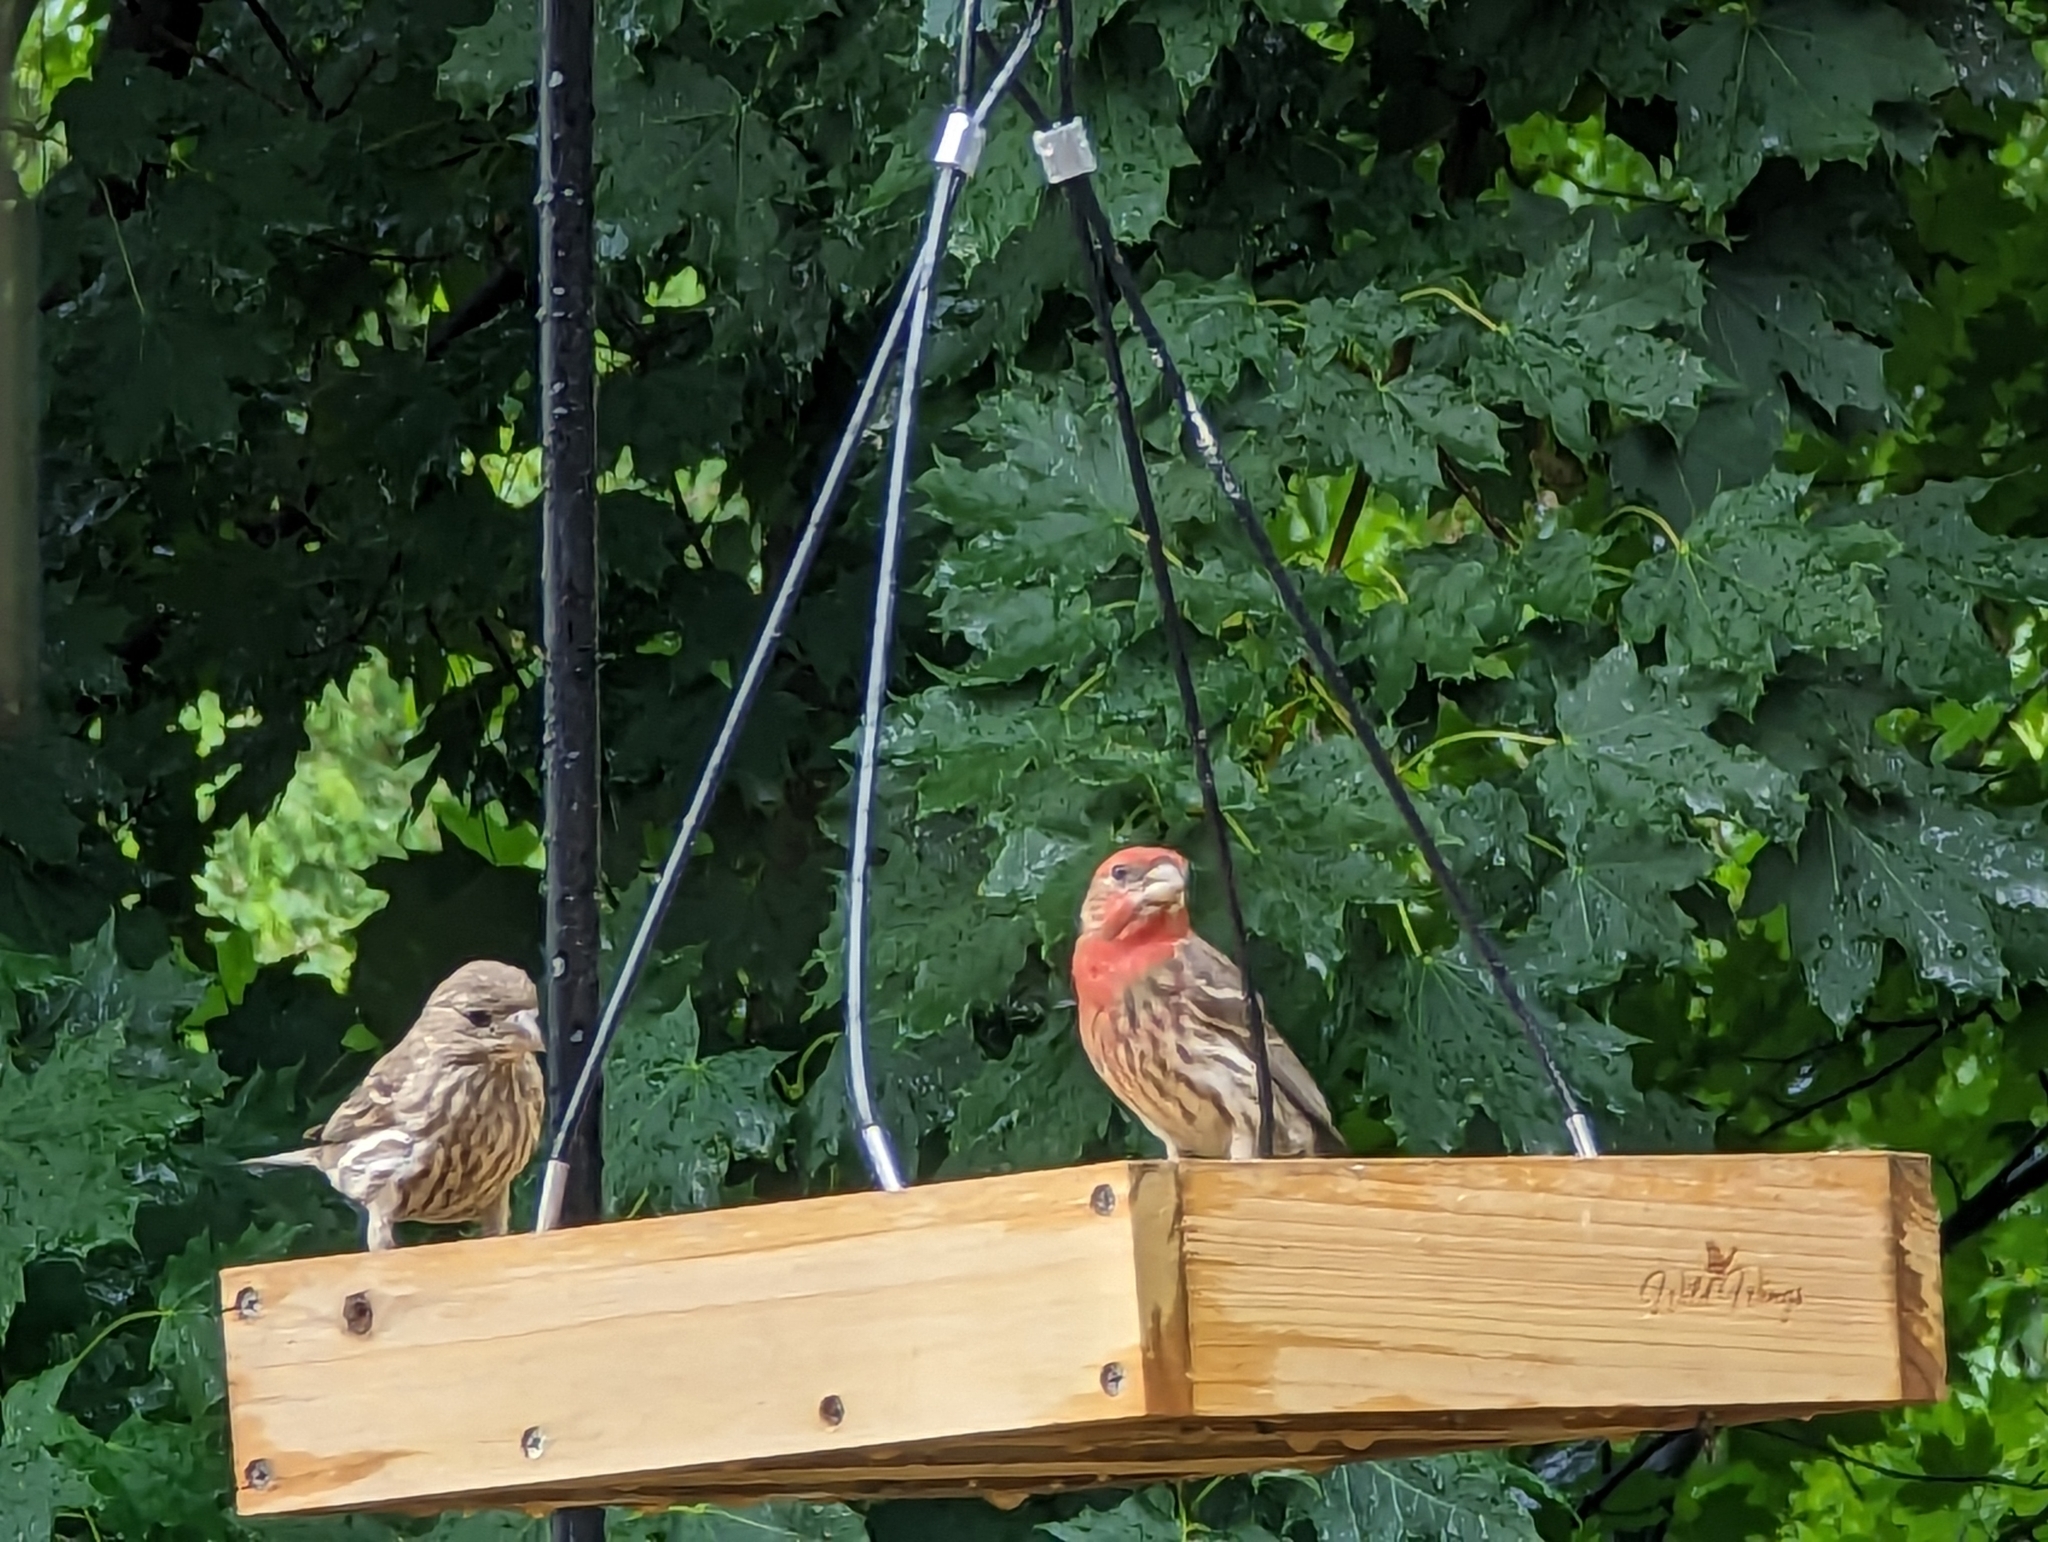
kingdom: Animalia
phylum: Chordata
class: Aves
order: Passeriformes
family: Fringillidae
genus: Haemorhous
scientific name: Haemorhous mexicanus
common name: House finch
